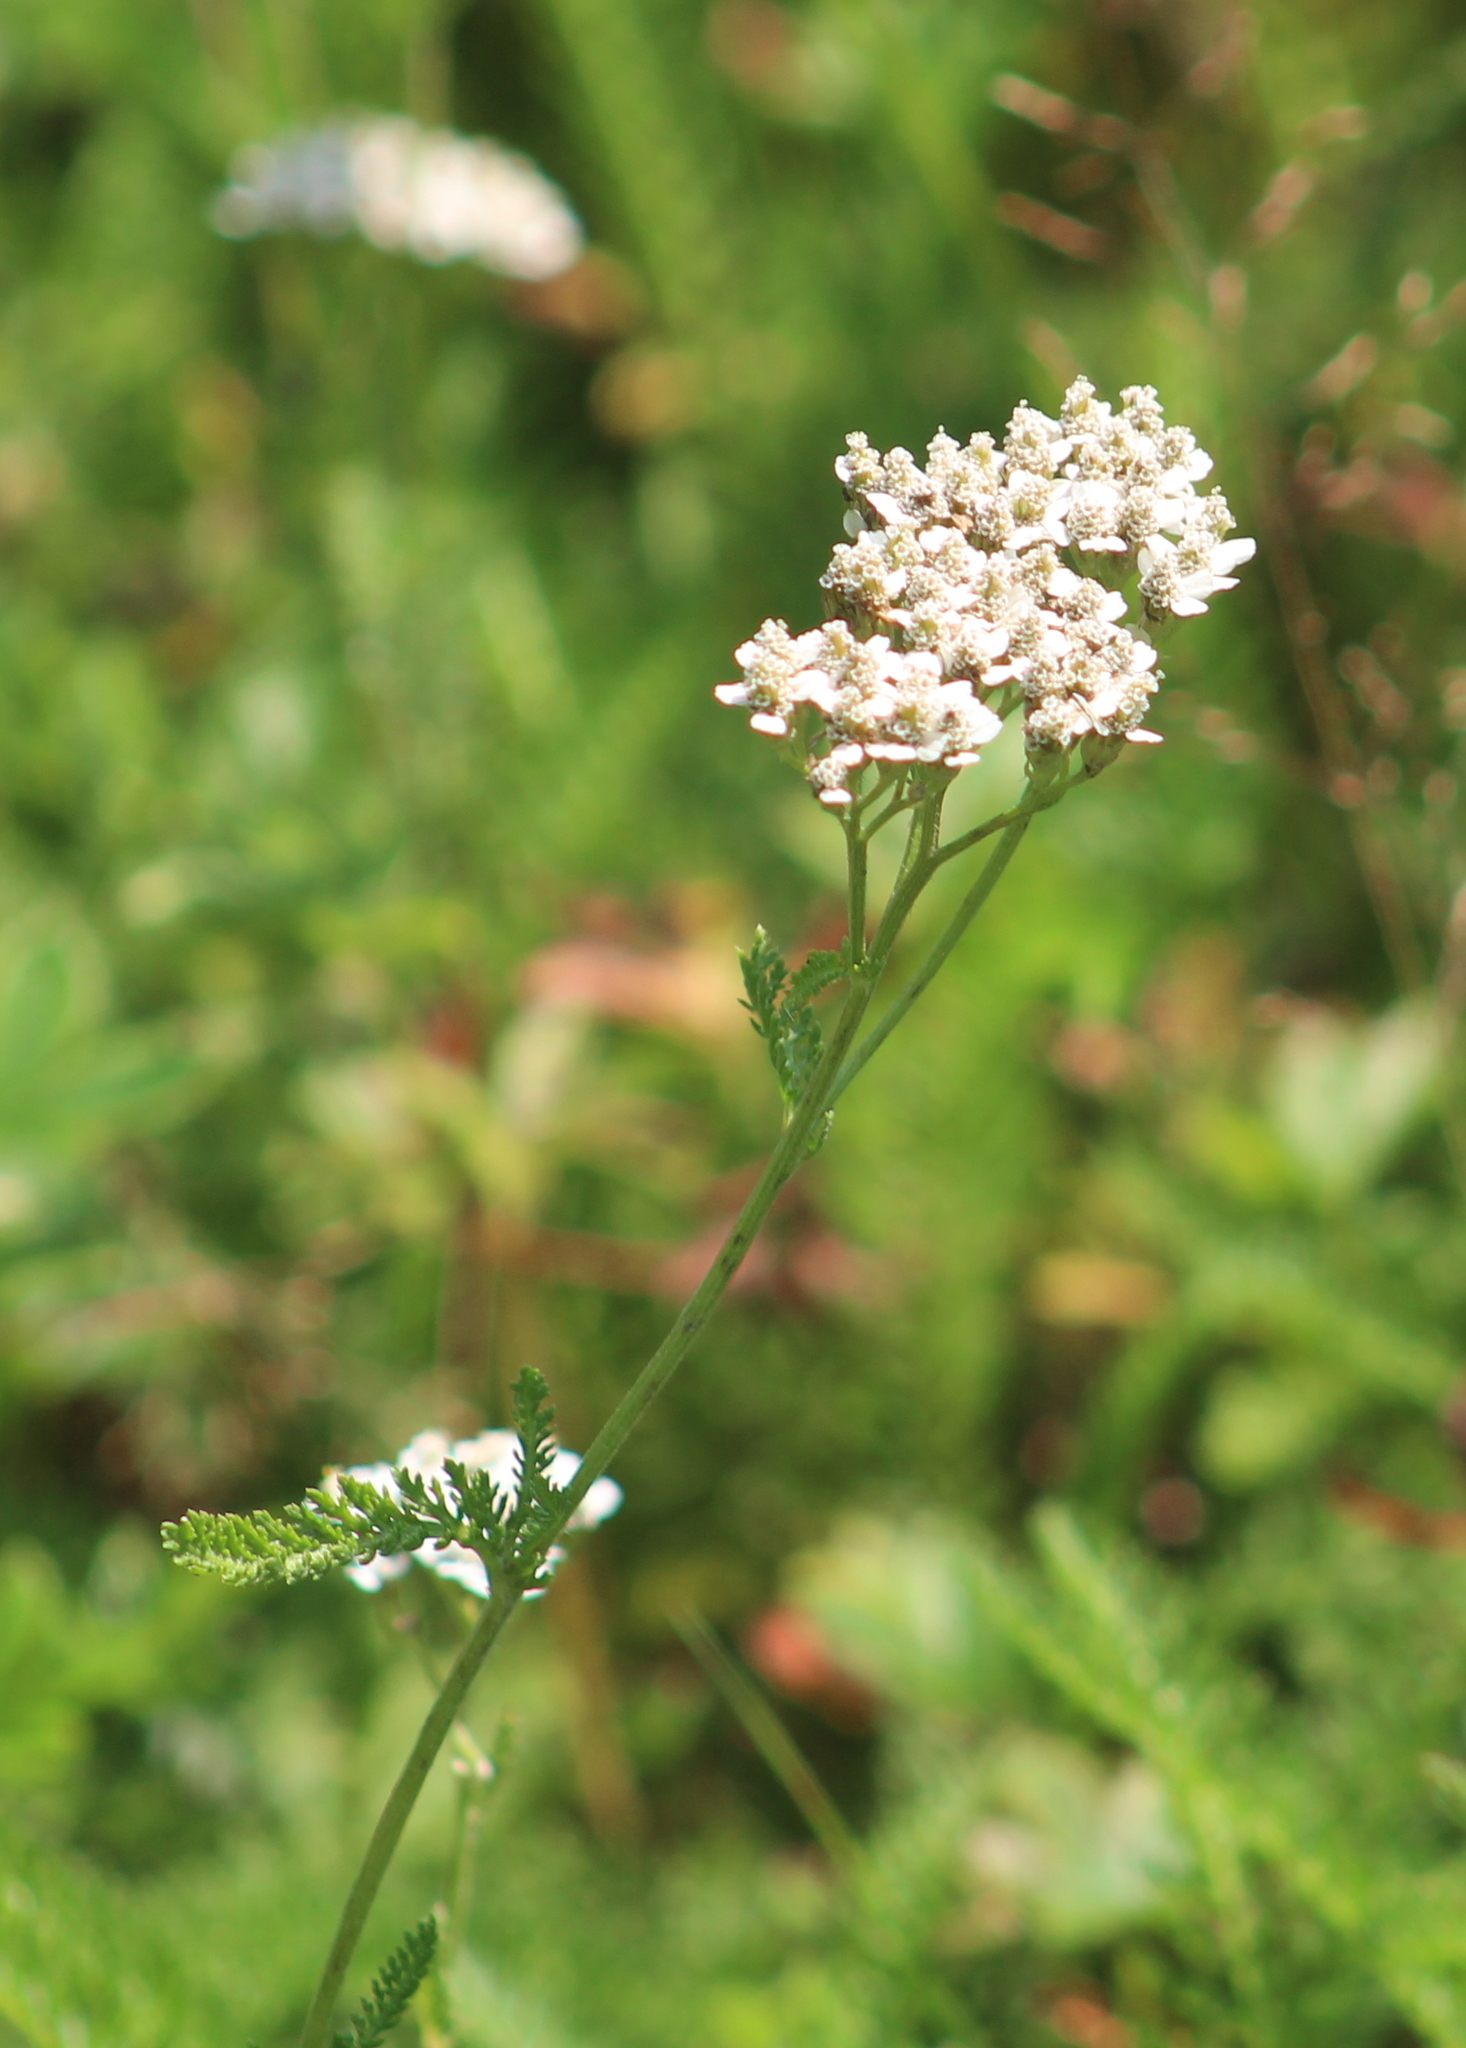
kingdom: Plantae
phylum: Tracheophyta
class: Magnoliopsida
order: Asterales
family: Asteraceae
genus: Achillea
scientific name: Achillea millefolium
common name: Yarrow
